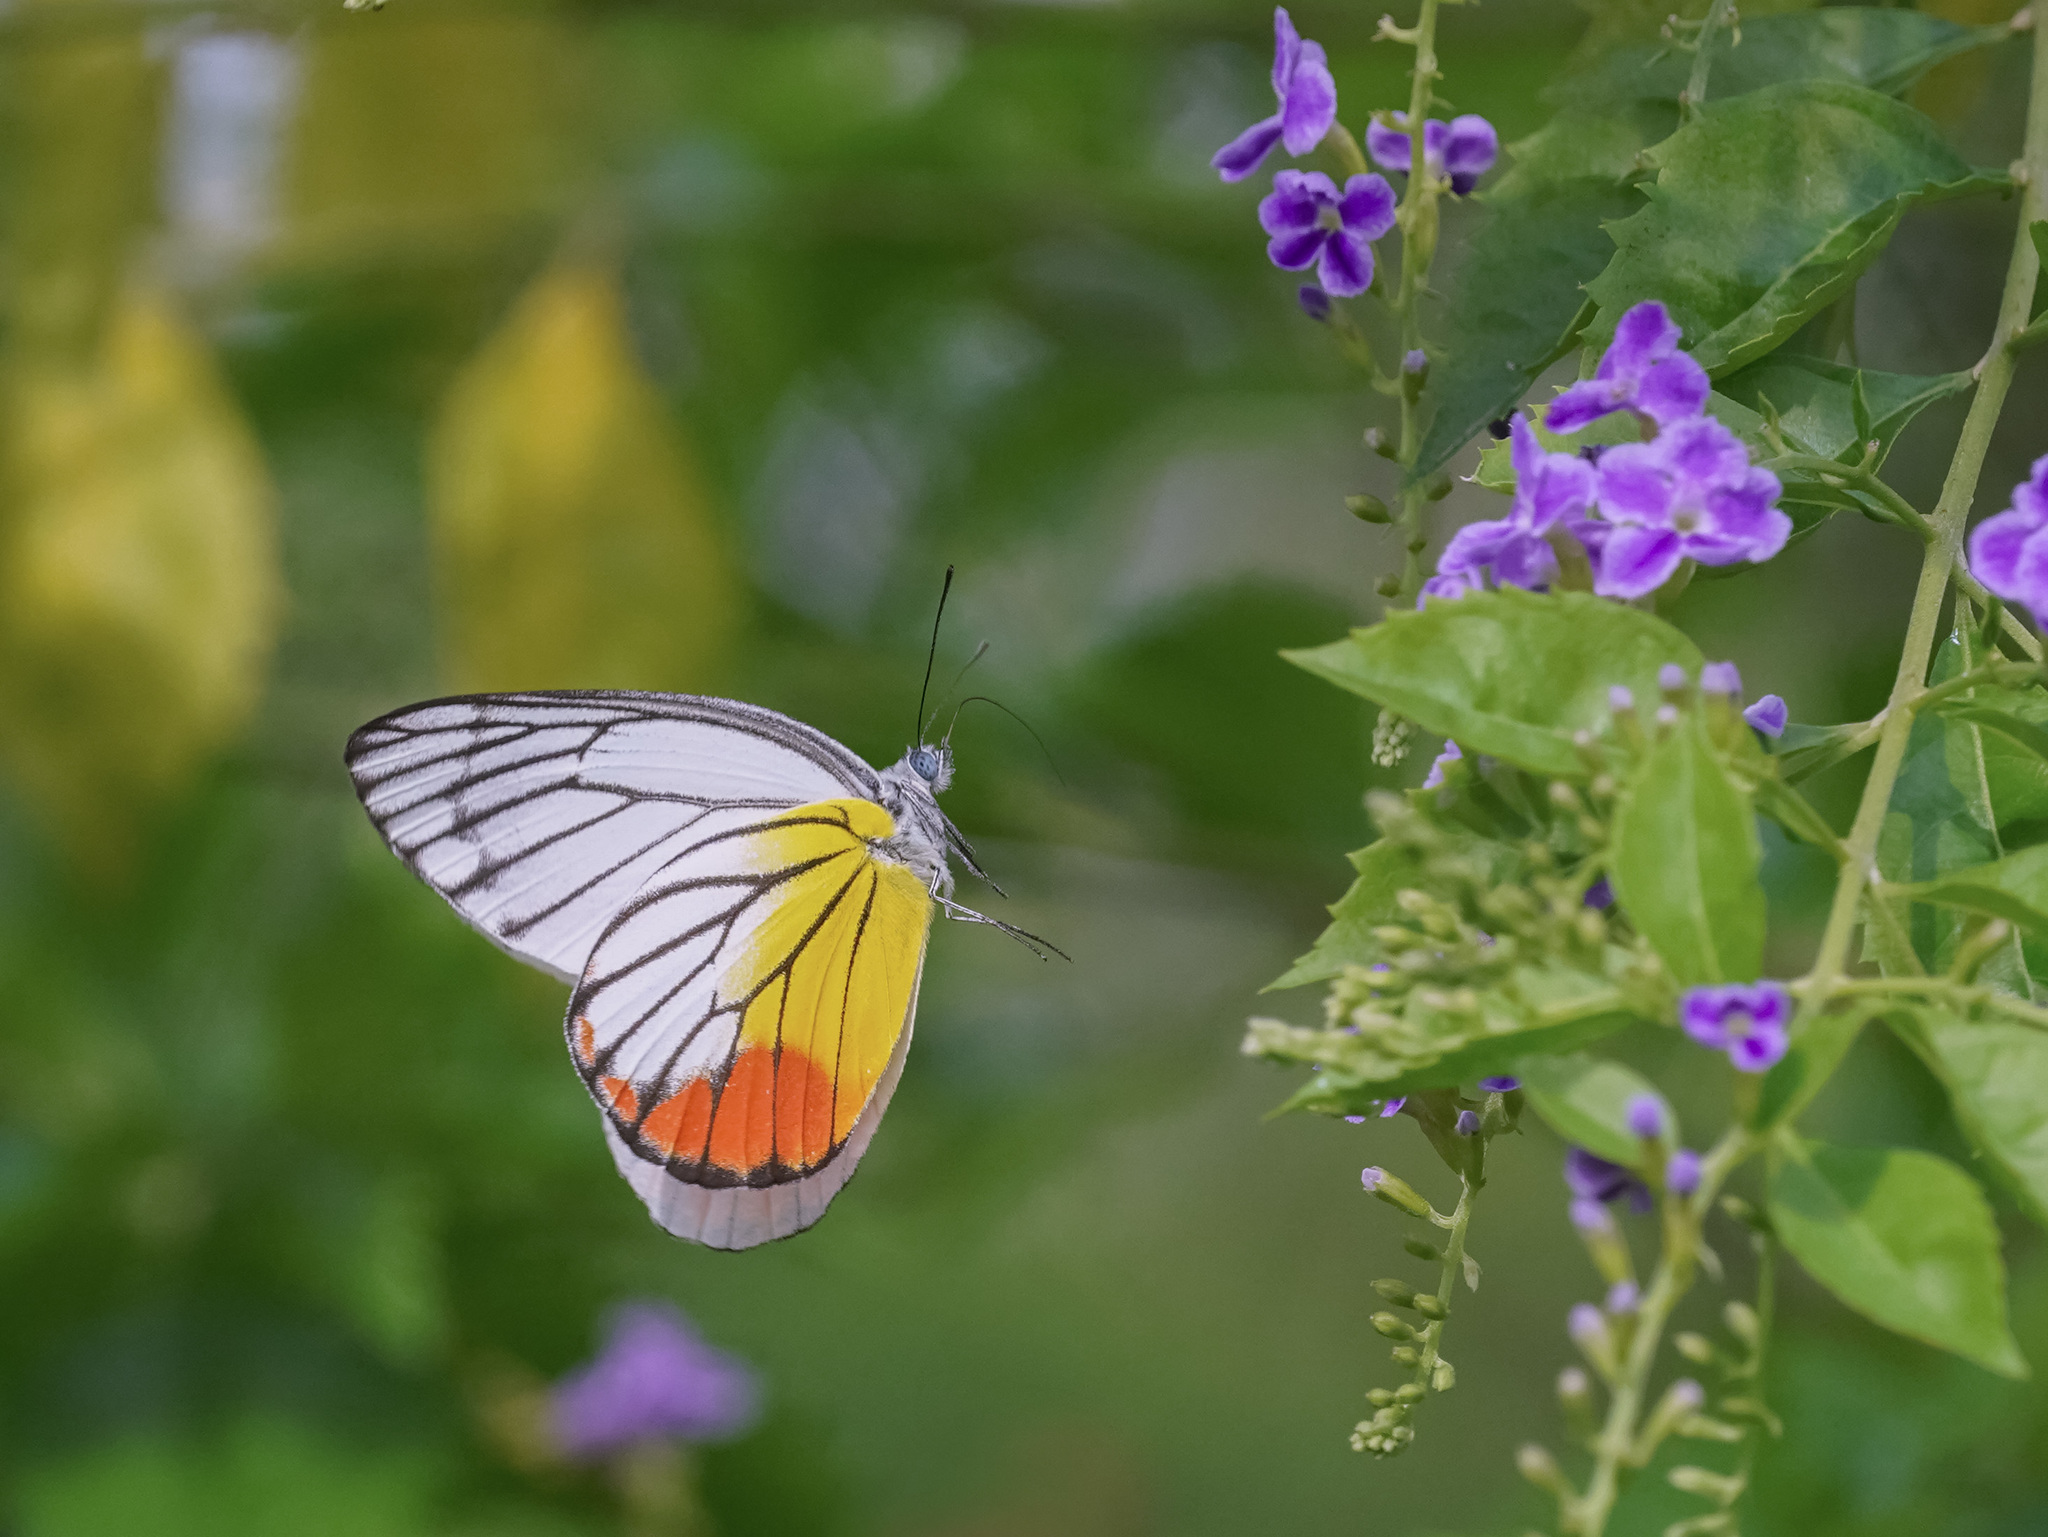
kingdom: Animalia
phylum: Arthropoda
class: Insecta
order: Lepidoptera
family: Pieridae
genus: Delias
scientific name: Delias hyparete
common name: Painted jezebel
